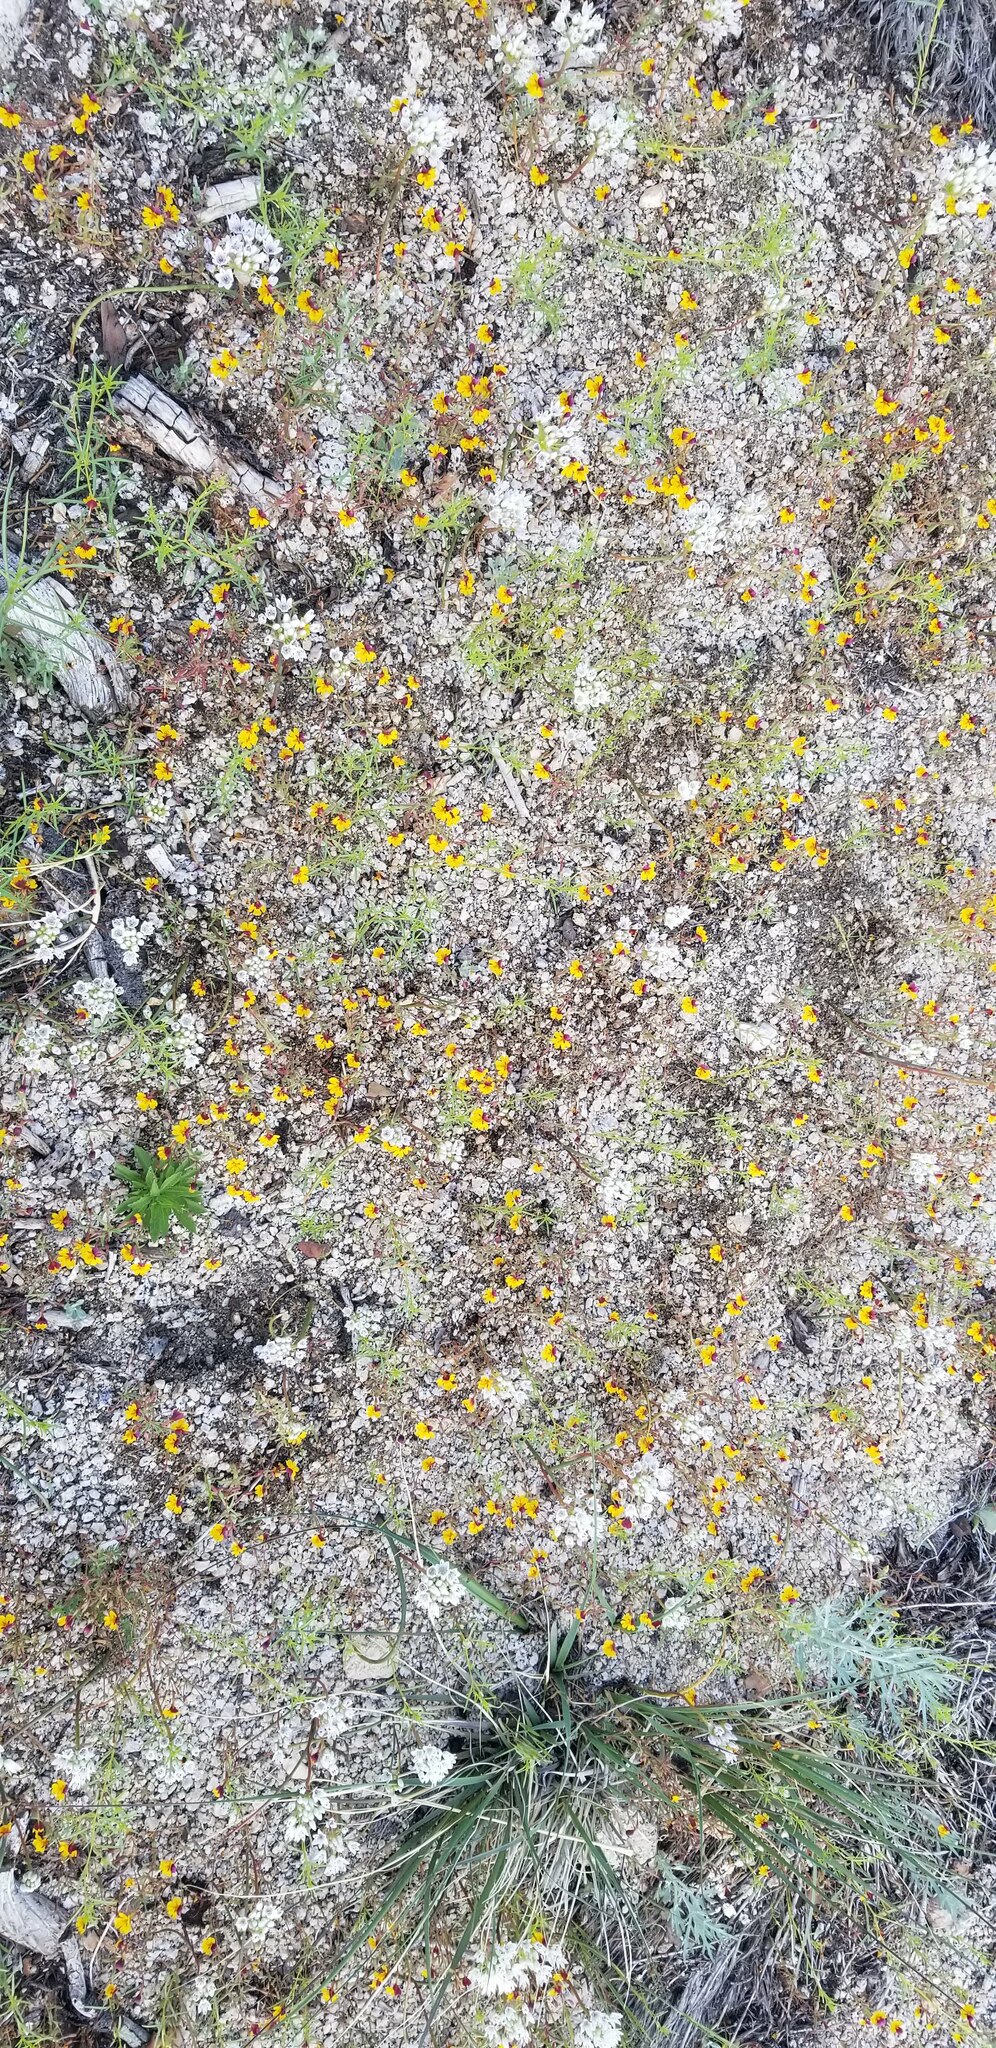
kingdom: Plantae
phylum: Tracheophyta
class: Magnoliopsida
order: Lamiales
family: Phrymaceae
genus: Erythranthe
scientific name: Erythranthe barbata
